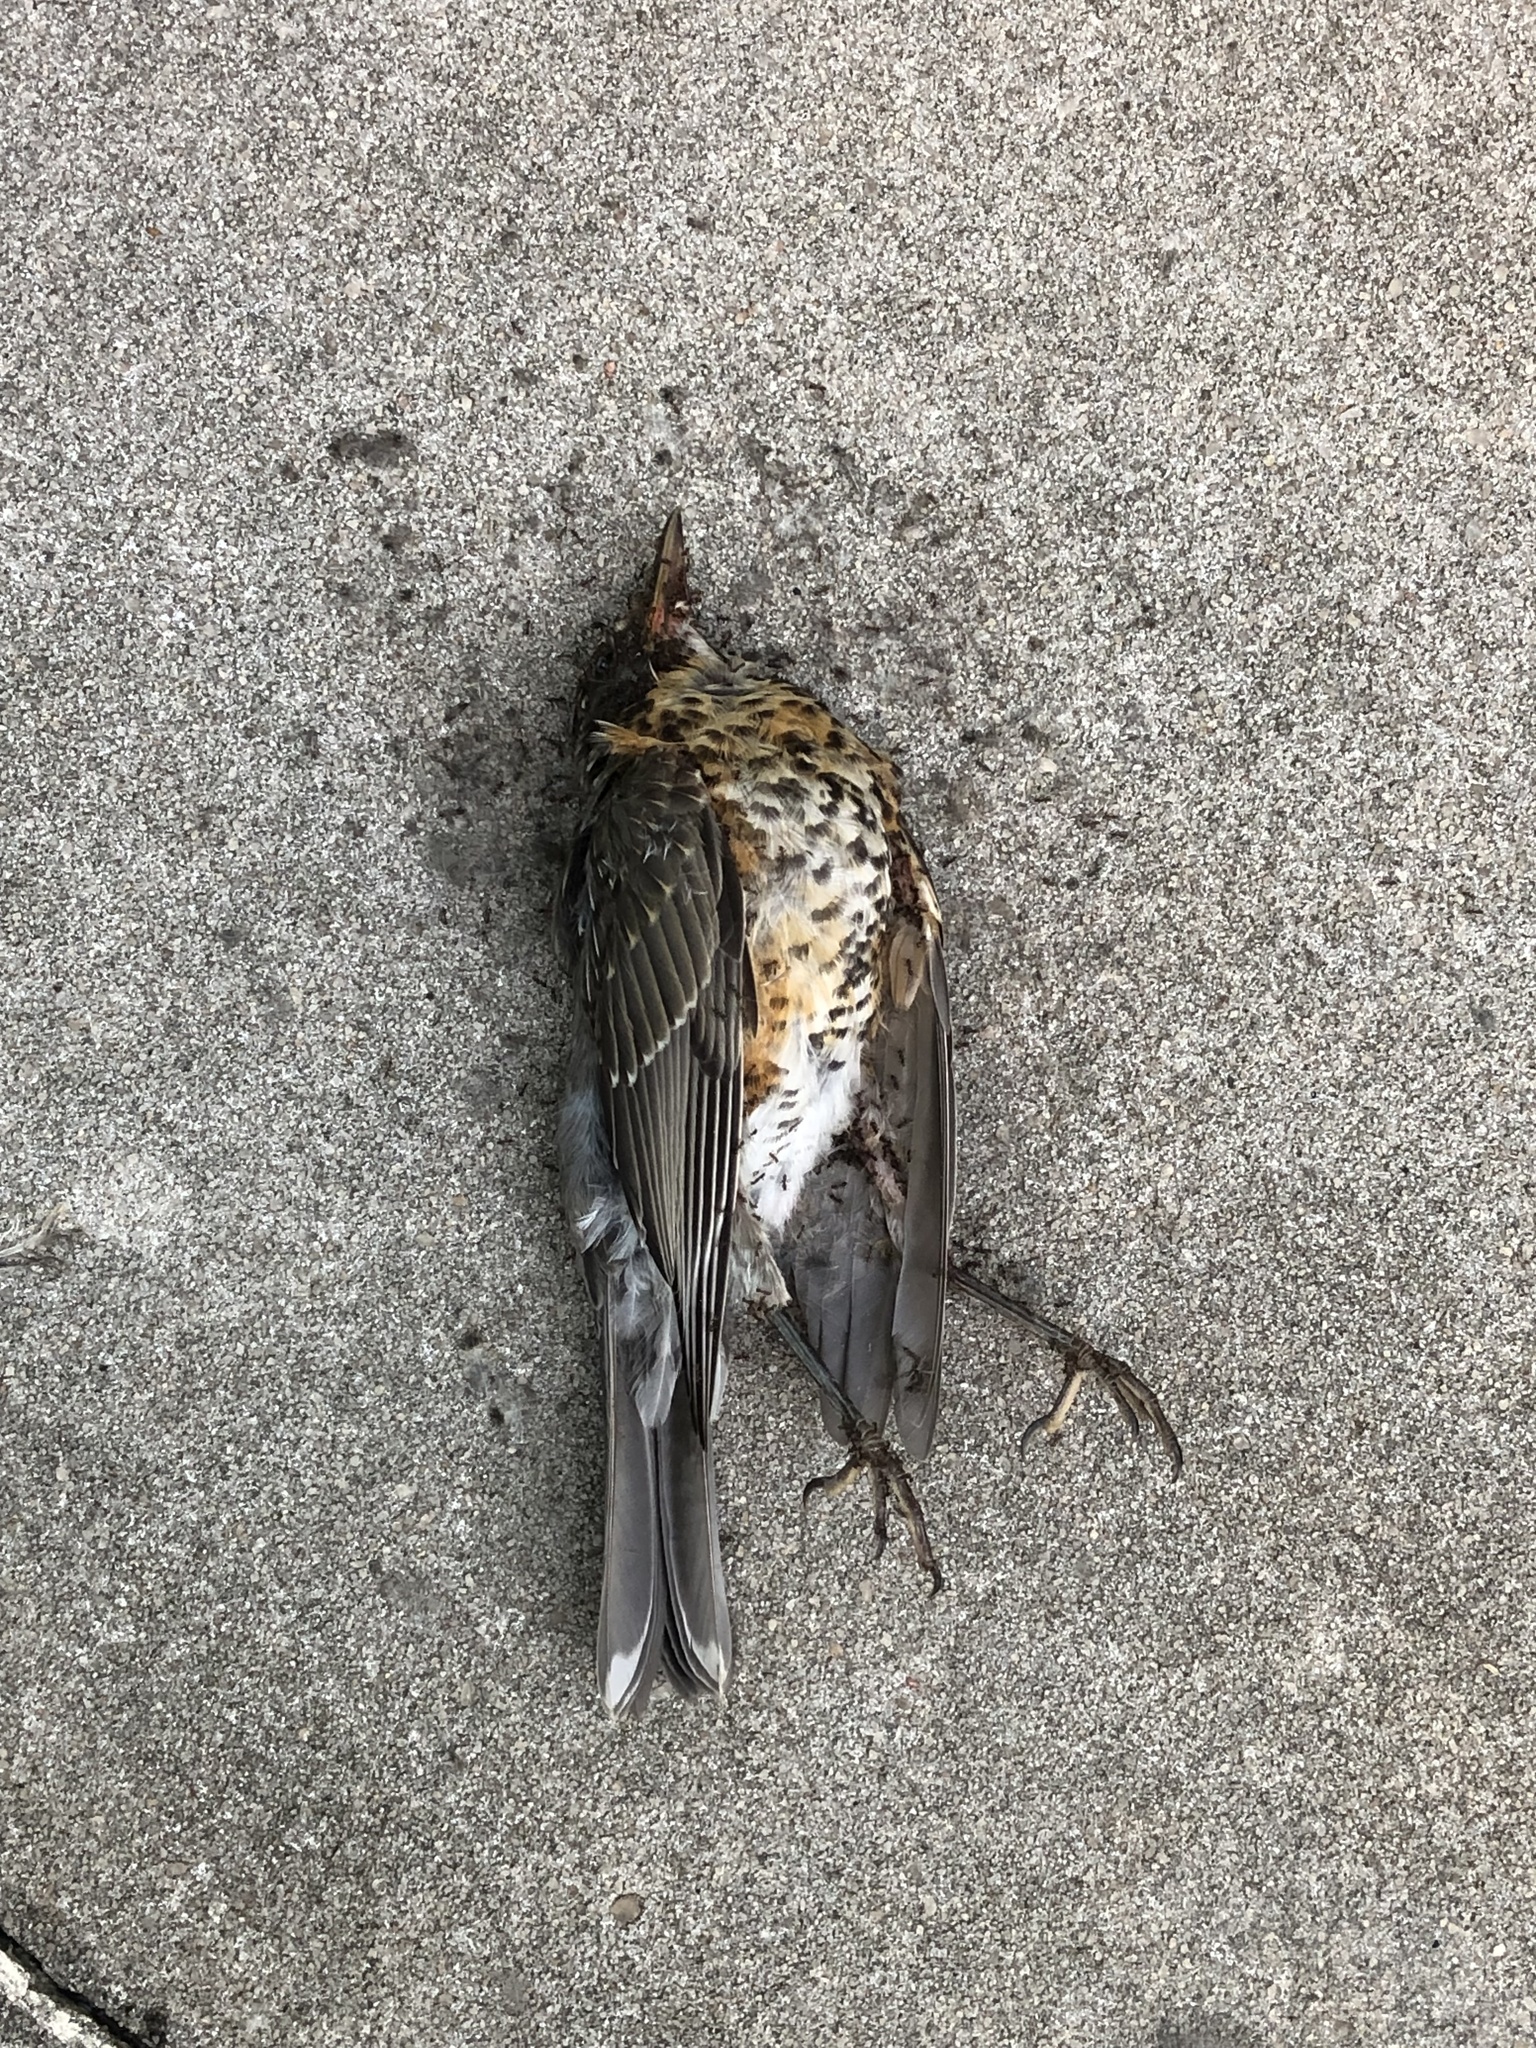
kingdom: Animalia
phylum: Chordata
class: Aves
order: Passeriformes
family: Turdidae
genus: Turdus
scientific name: Turdus migratorius
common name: American robin
